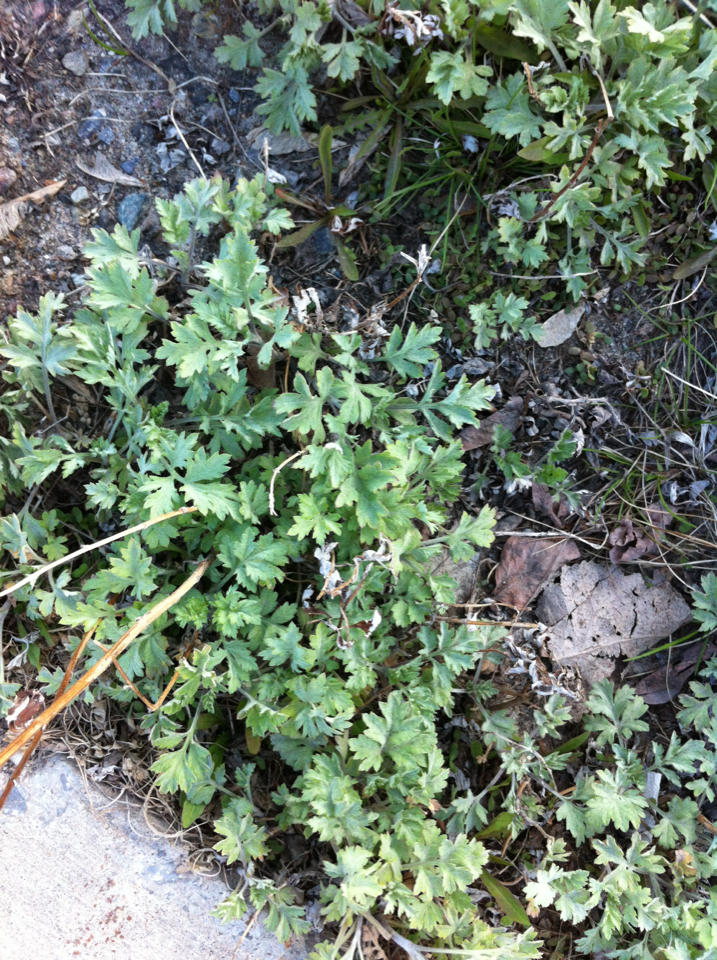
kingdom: Plantae
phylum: Tracheophyta
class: Magnoliopsida
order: Asterales
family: Asteraceae
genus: Artemisia
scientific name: Artemisia vulgaris
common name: Mugwort
